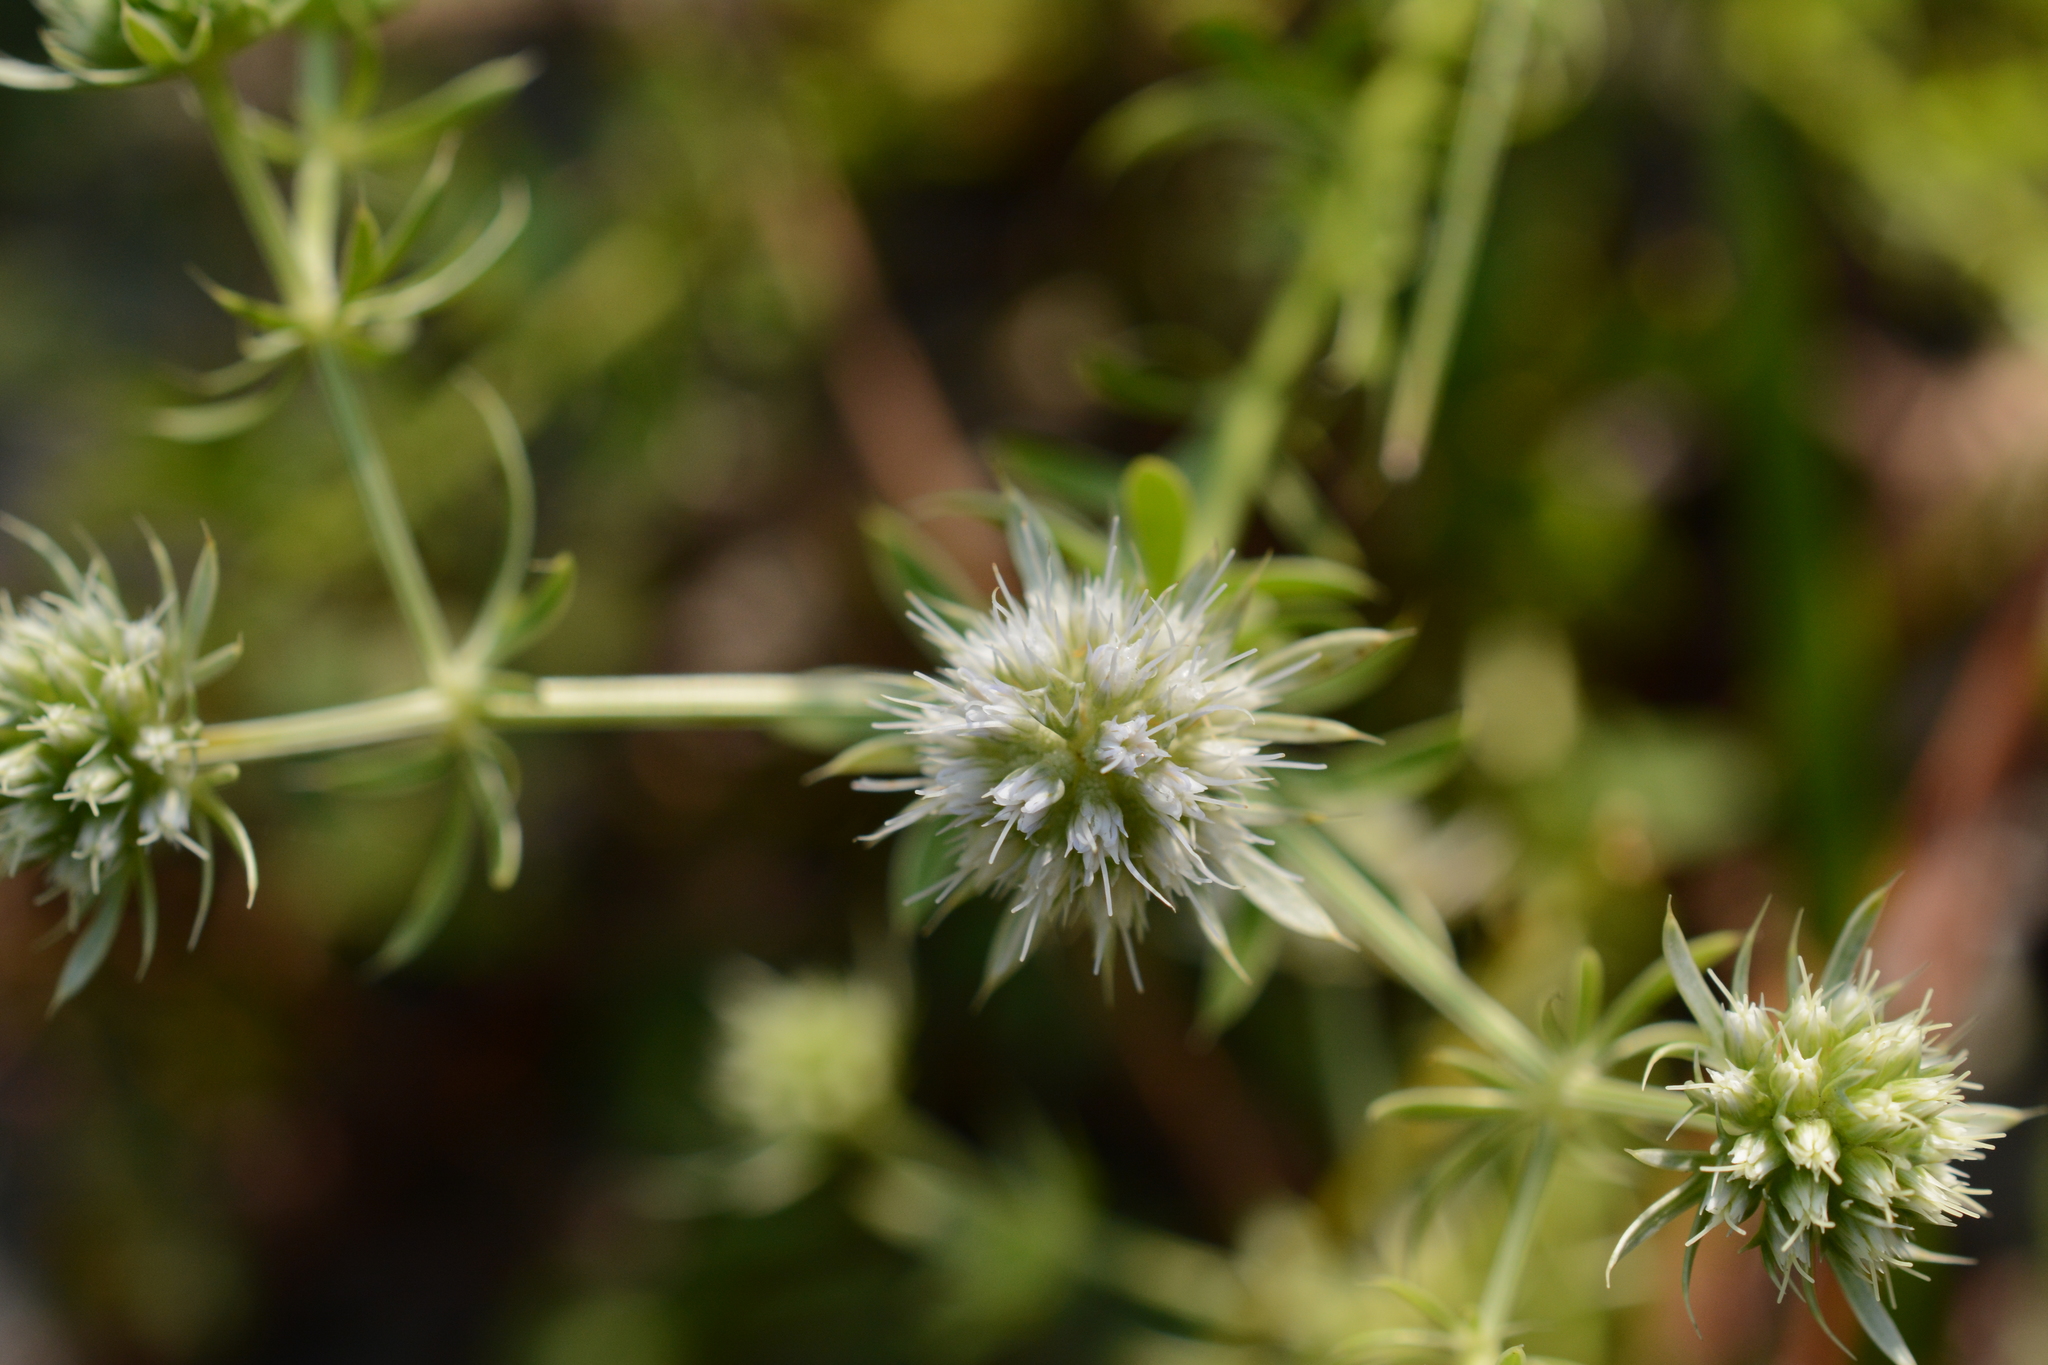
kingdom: Plantae
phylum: Tracheophyta
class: Magnoliopsida
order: Apiales
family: Apiaceae
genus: Eryngium
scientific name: Eryngium aromaticum
